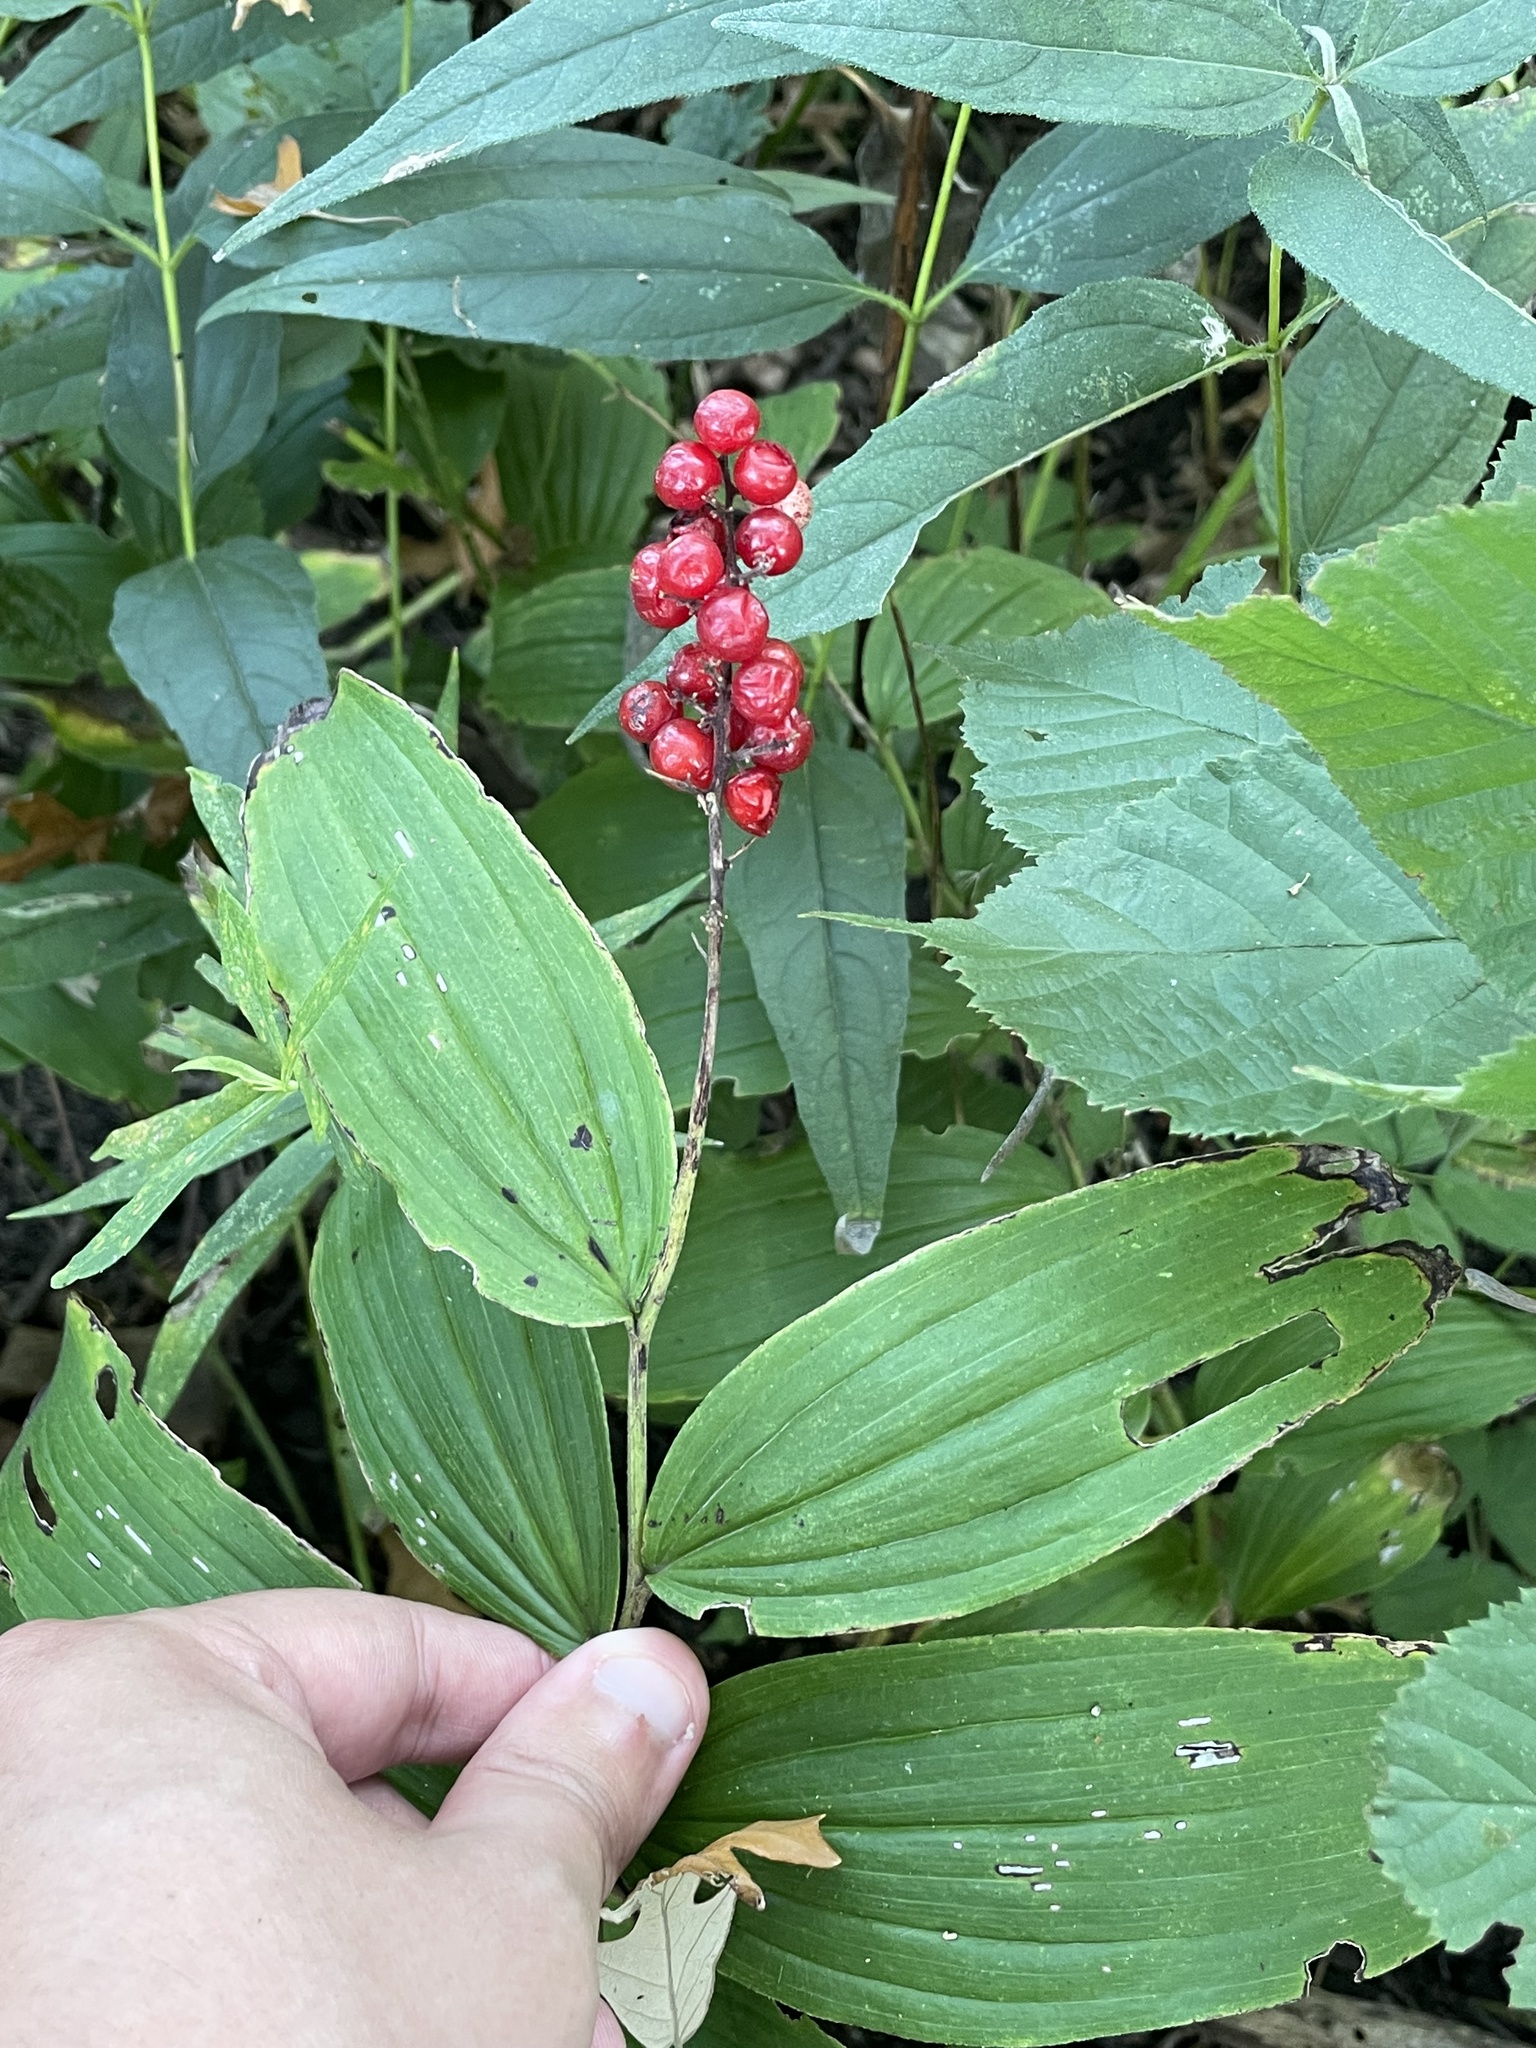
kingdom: Plantae
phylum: Tracheophyta
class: Liliopsida
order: Asparagales
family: Asparagaceae
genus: Maianthemum
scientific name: Maianthemum racemosum
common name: False spikenard
